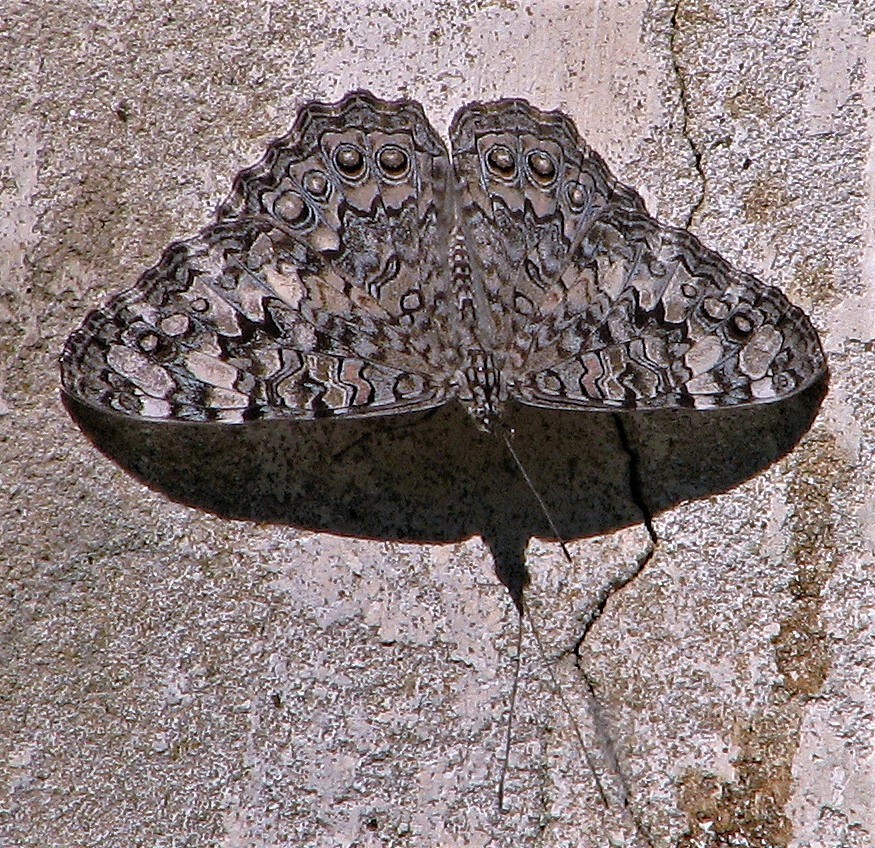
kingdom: Animalia
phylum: Arthropoda
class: Insecta
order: Lepidoptera
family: Nymphalidae
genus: Hamadryas
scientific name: Hamadryas februa
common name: Gray cracker
